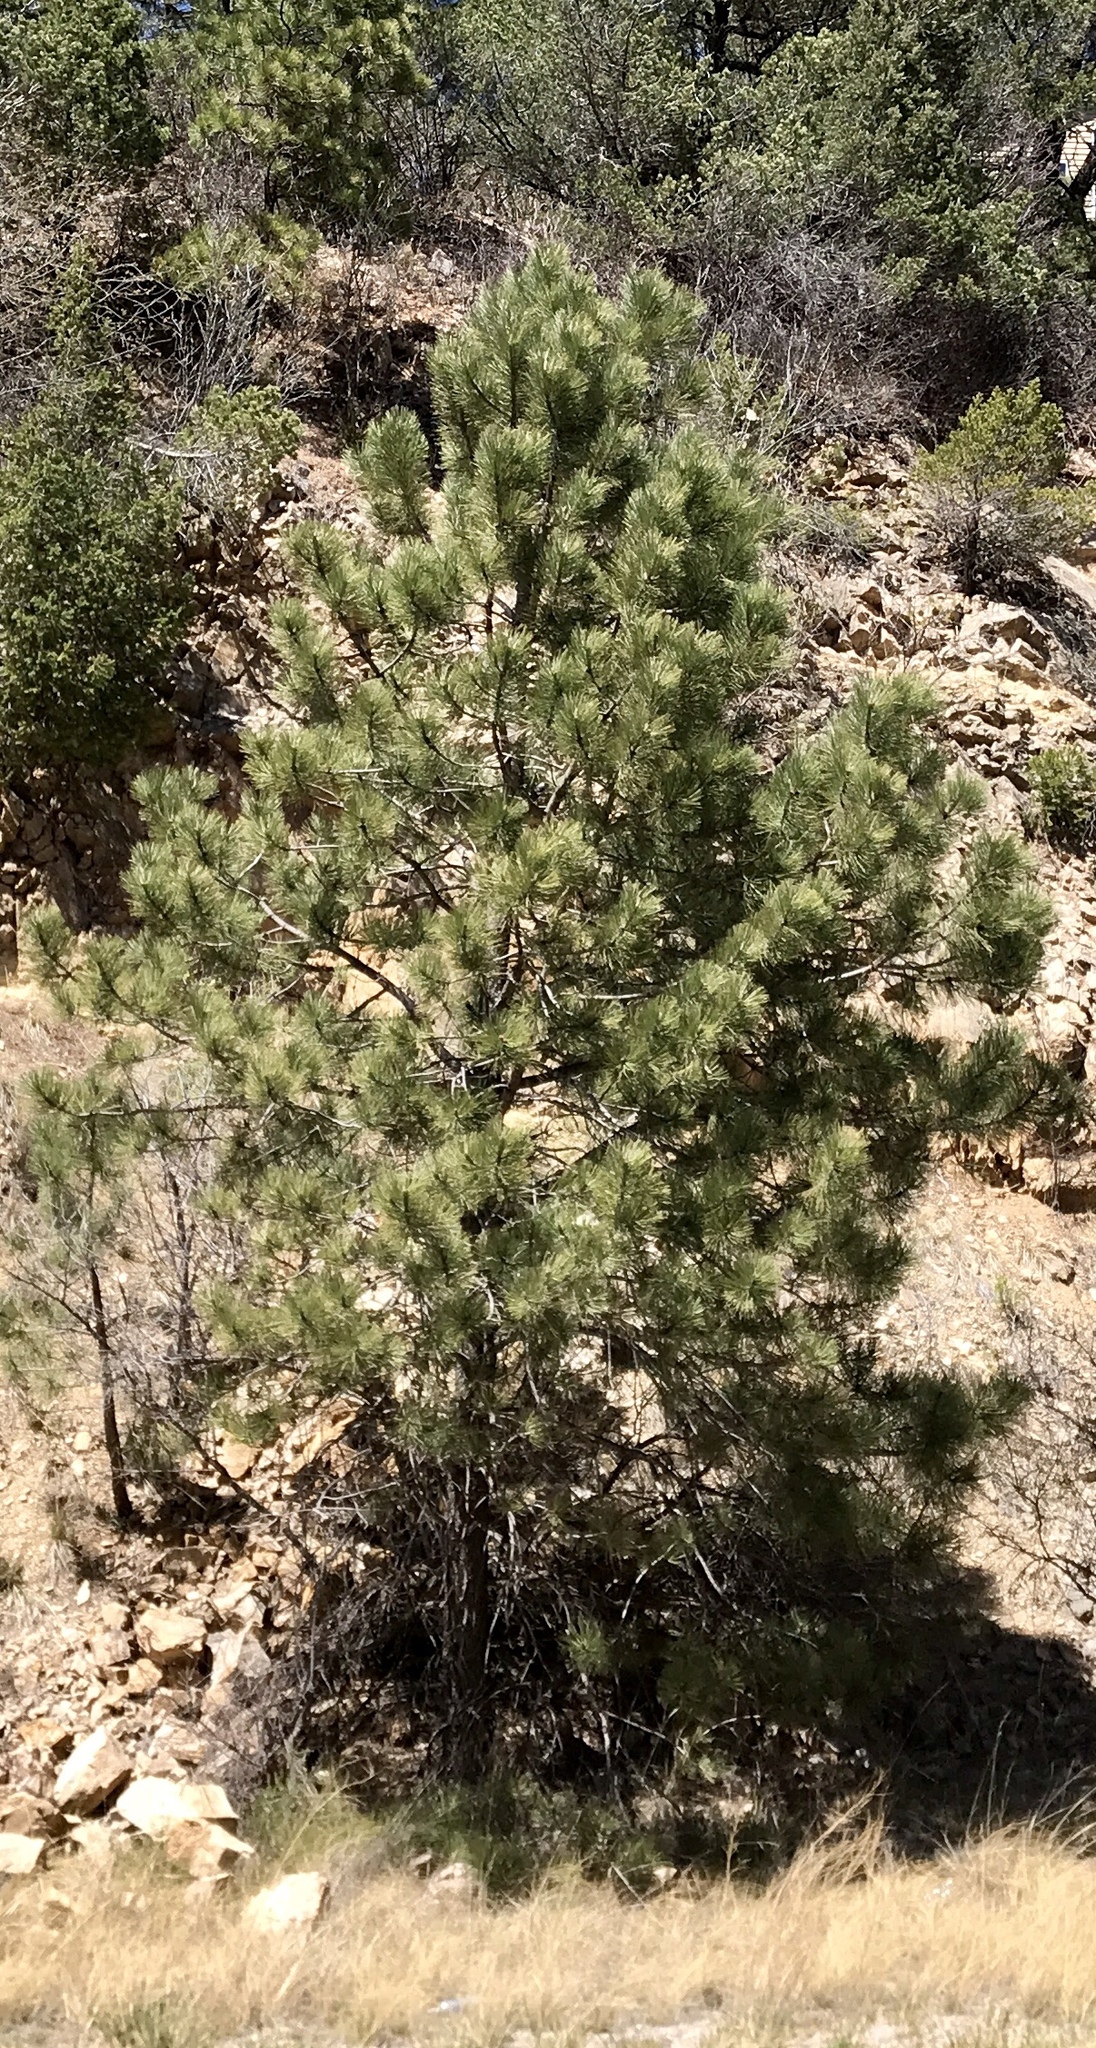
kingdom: Plantae
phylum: Tracheophyta
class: Pinopsida
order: Pinales
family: Pinaceae
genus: Pinus
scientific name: Pinus ponderosa
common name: Western yellow-pine
